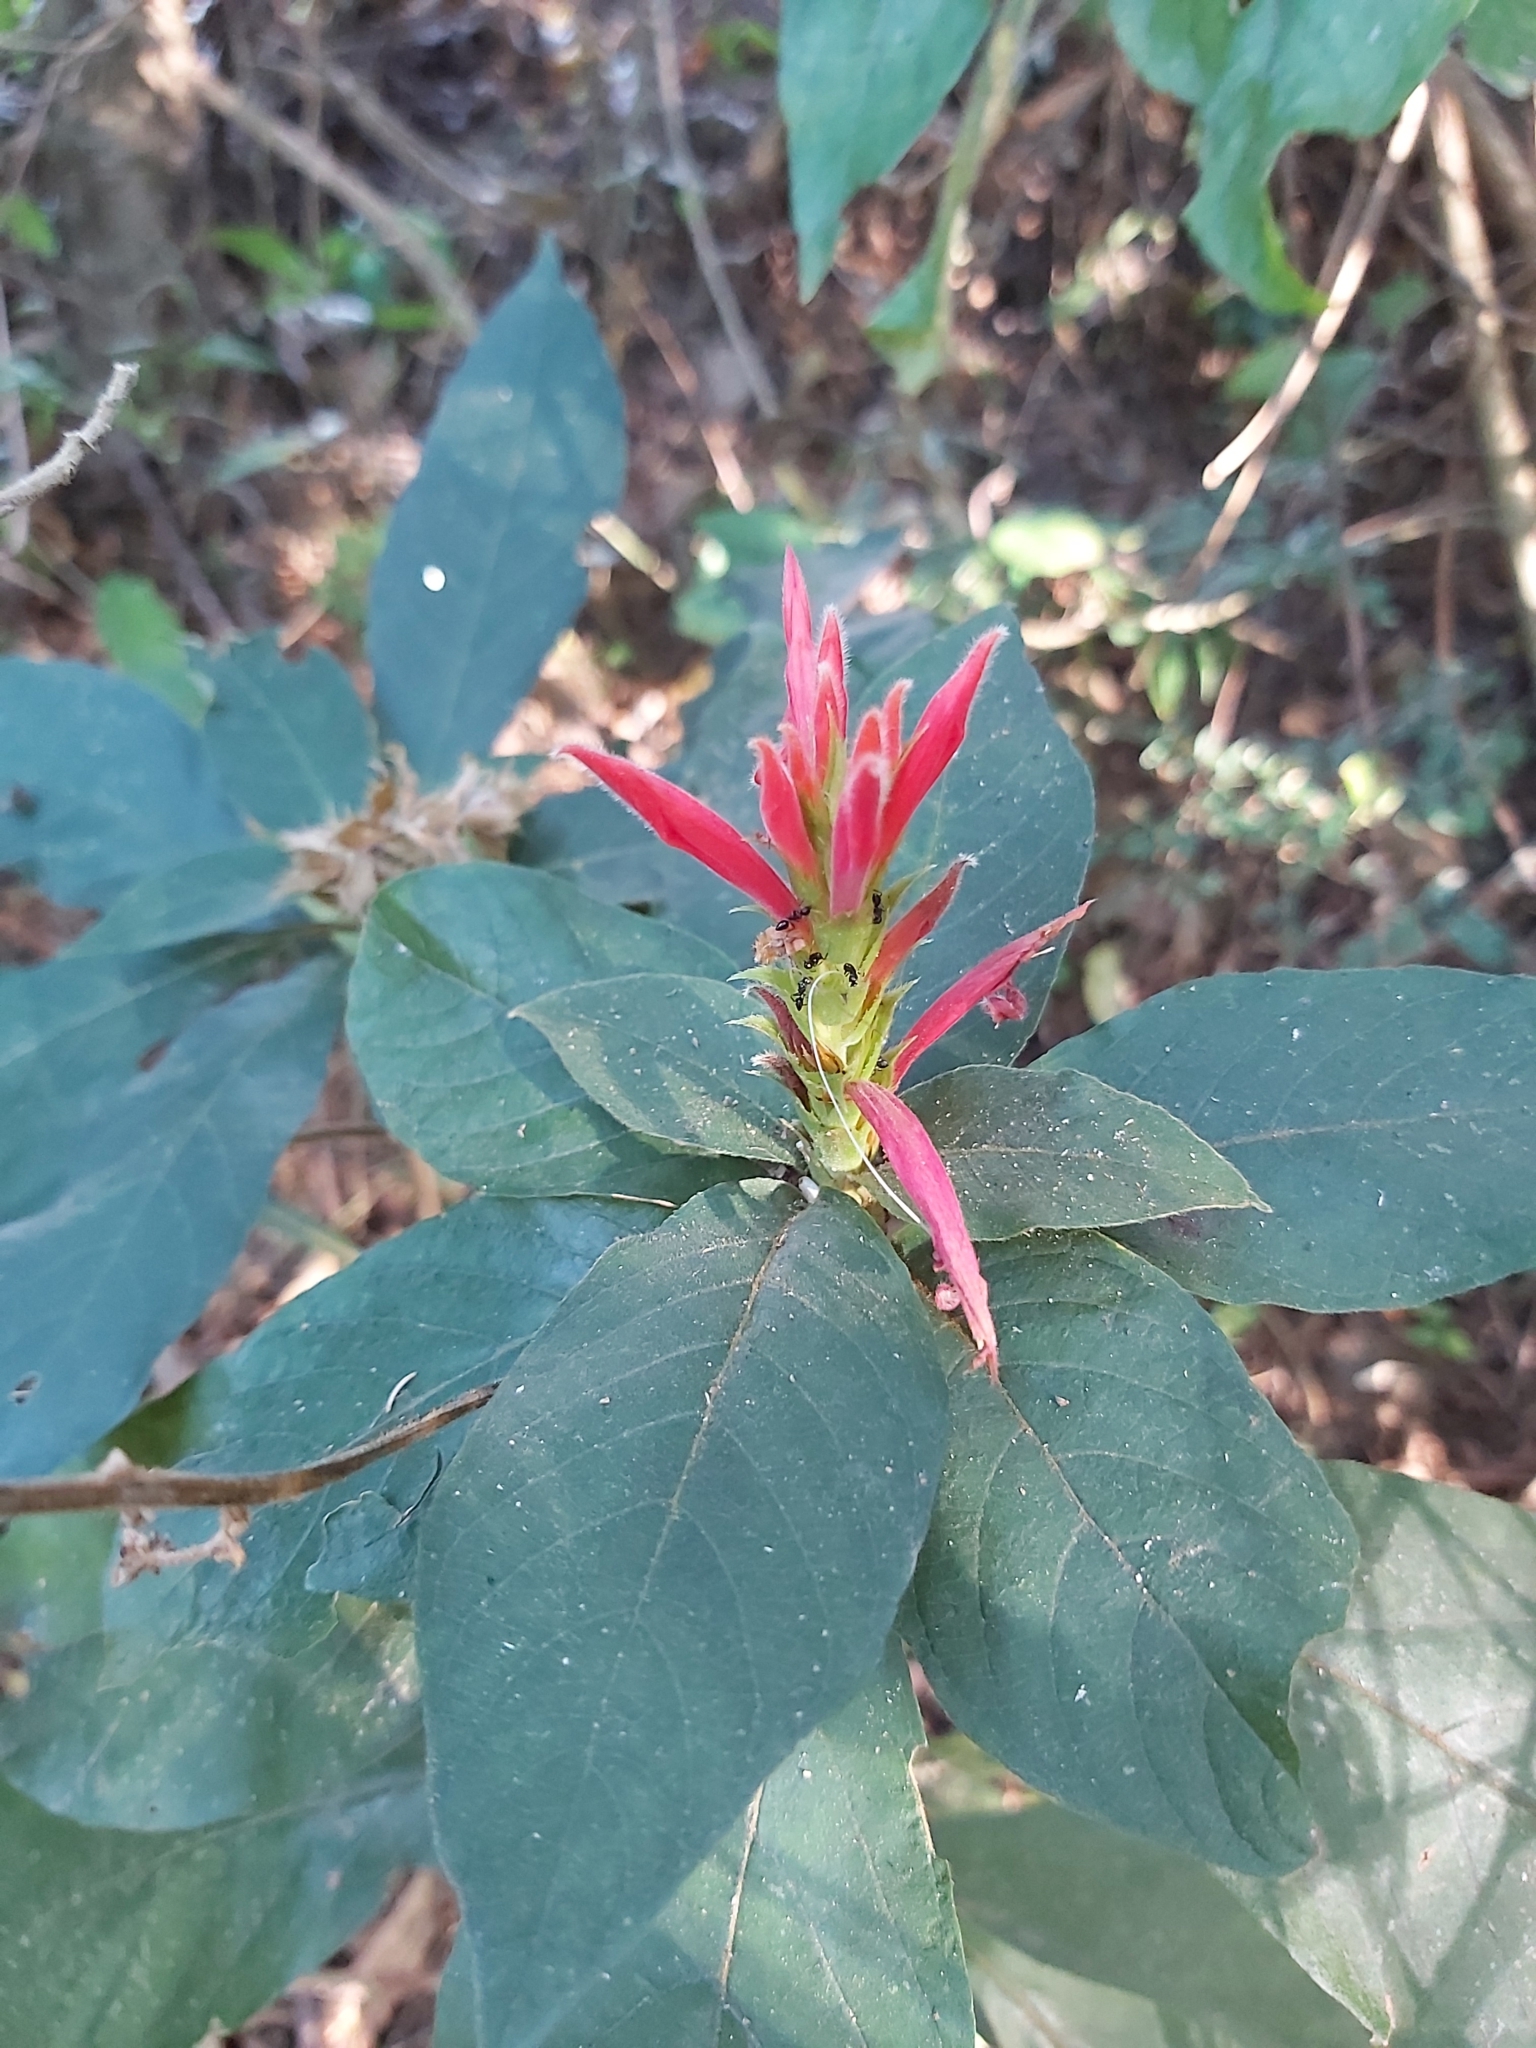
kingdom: Plantae
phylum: Tracheophyta
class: Magnoliopsida
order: Lamiales
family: Acanthaceae
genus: Aphelandra
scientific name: Aphelandra scabra
